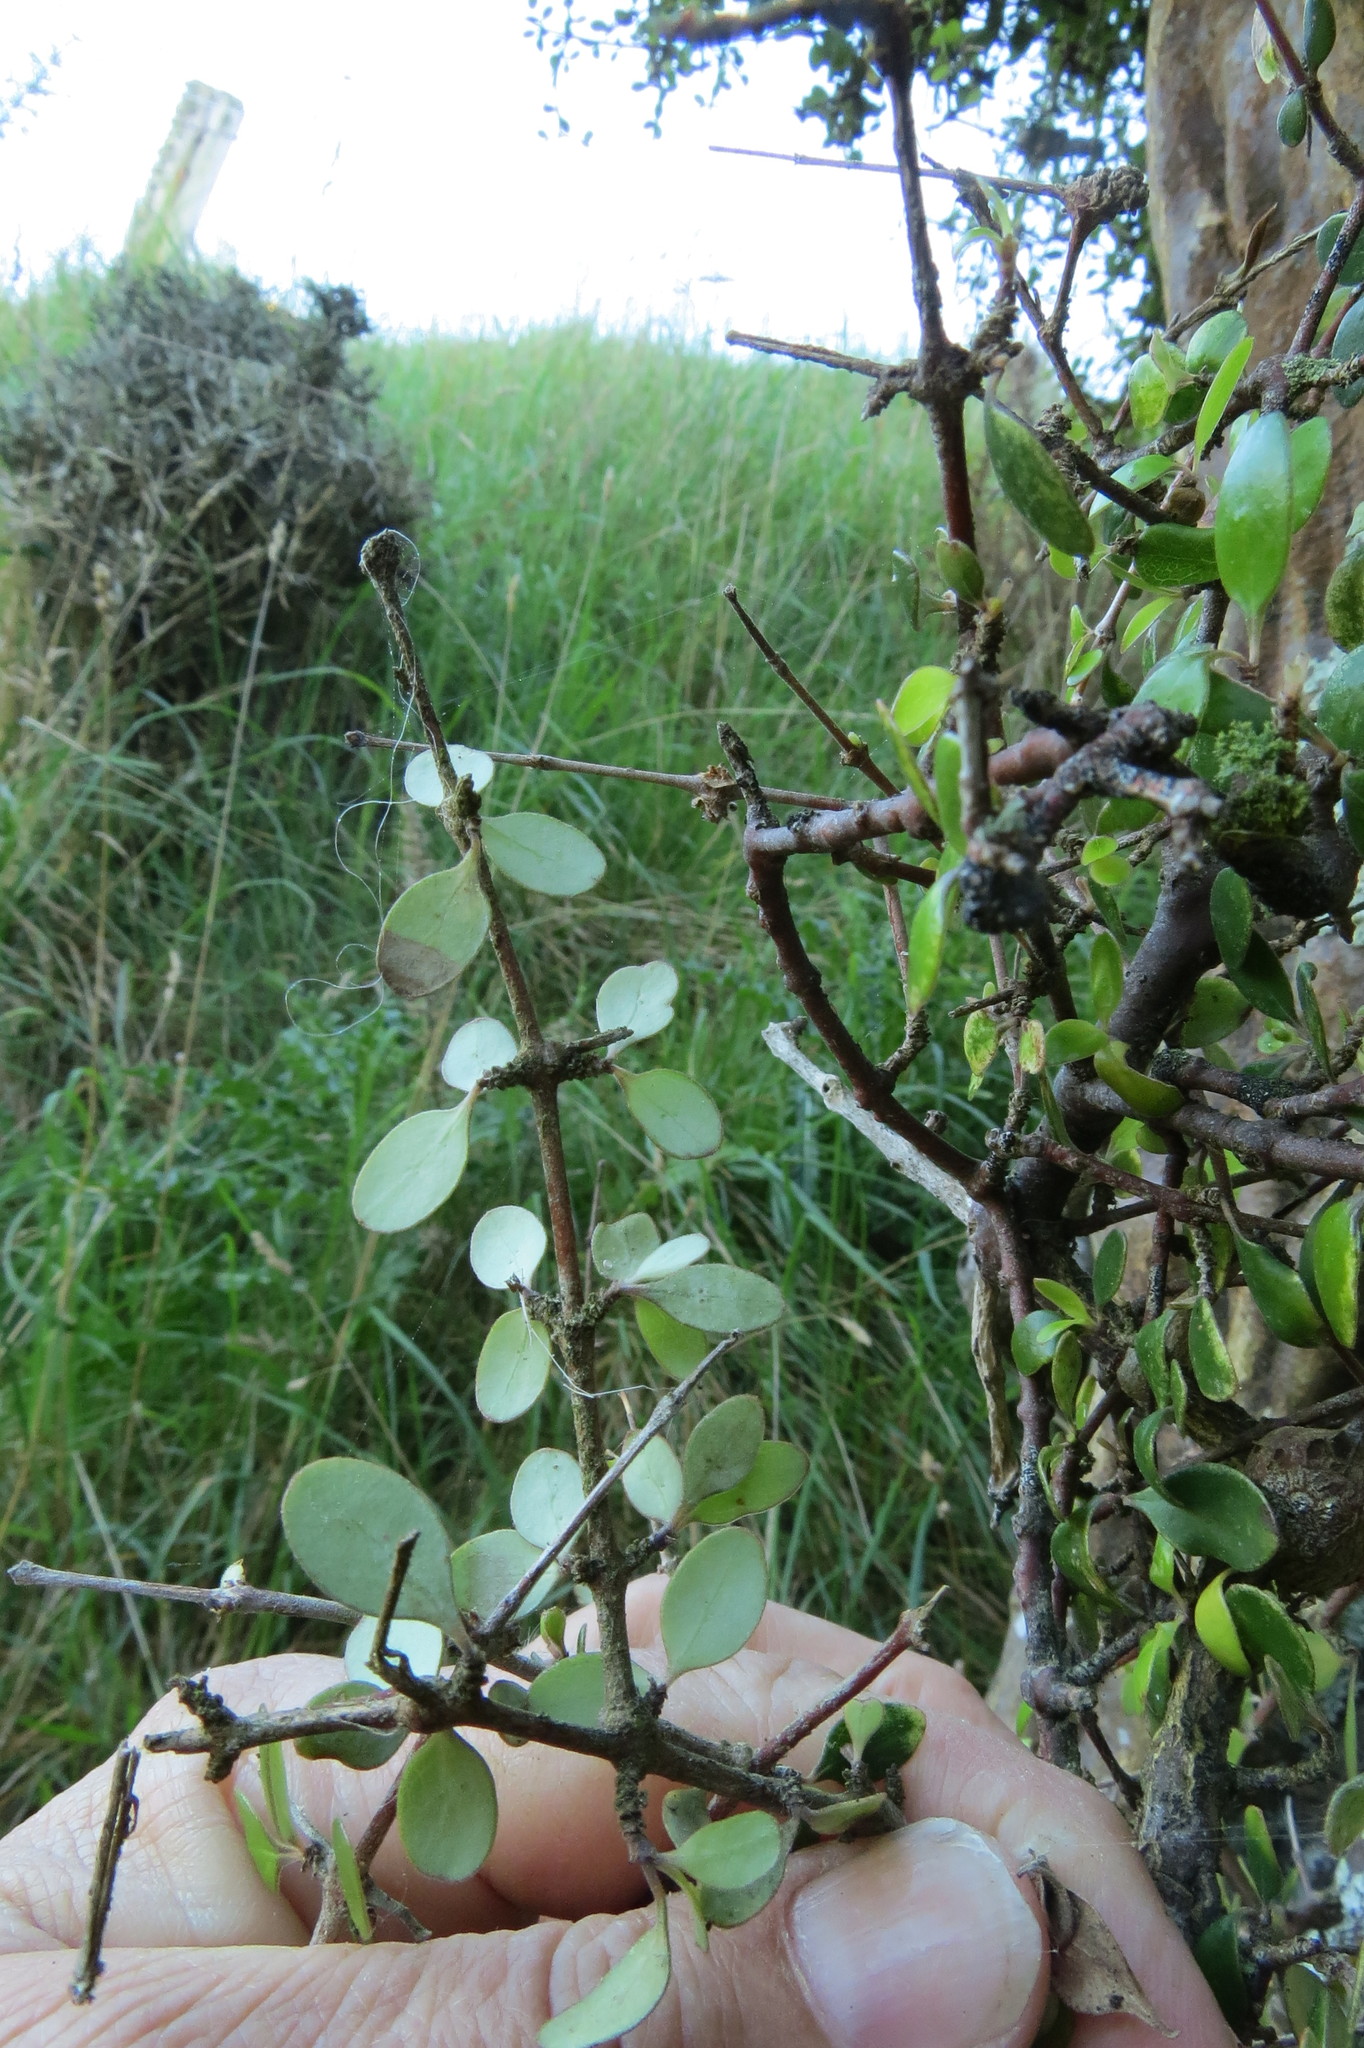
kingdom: Plantae
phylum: Tracheophyta
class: Magnoliopsida
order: Gentianales
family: Rubiaceae
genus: Coprosma
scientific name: Coprosma crassifolia
